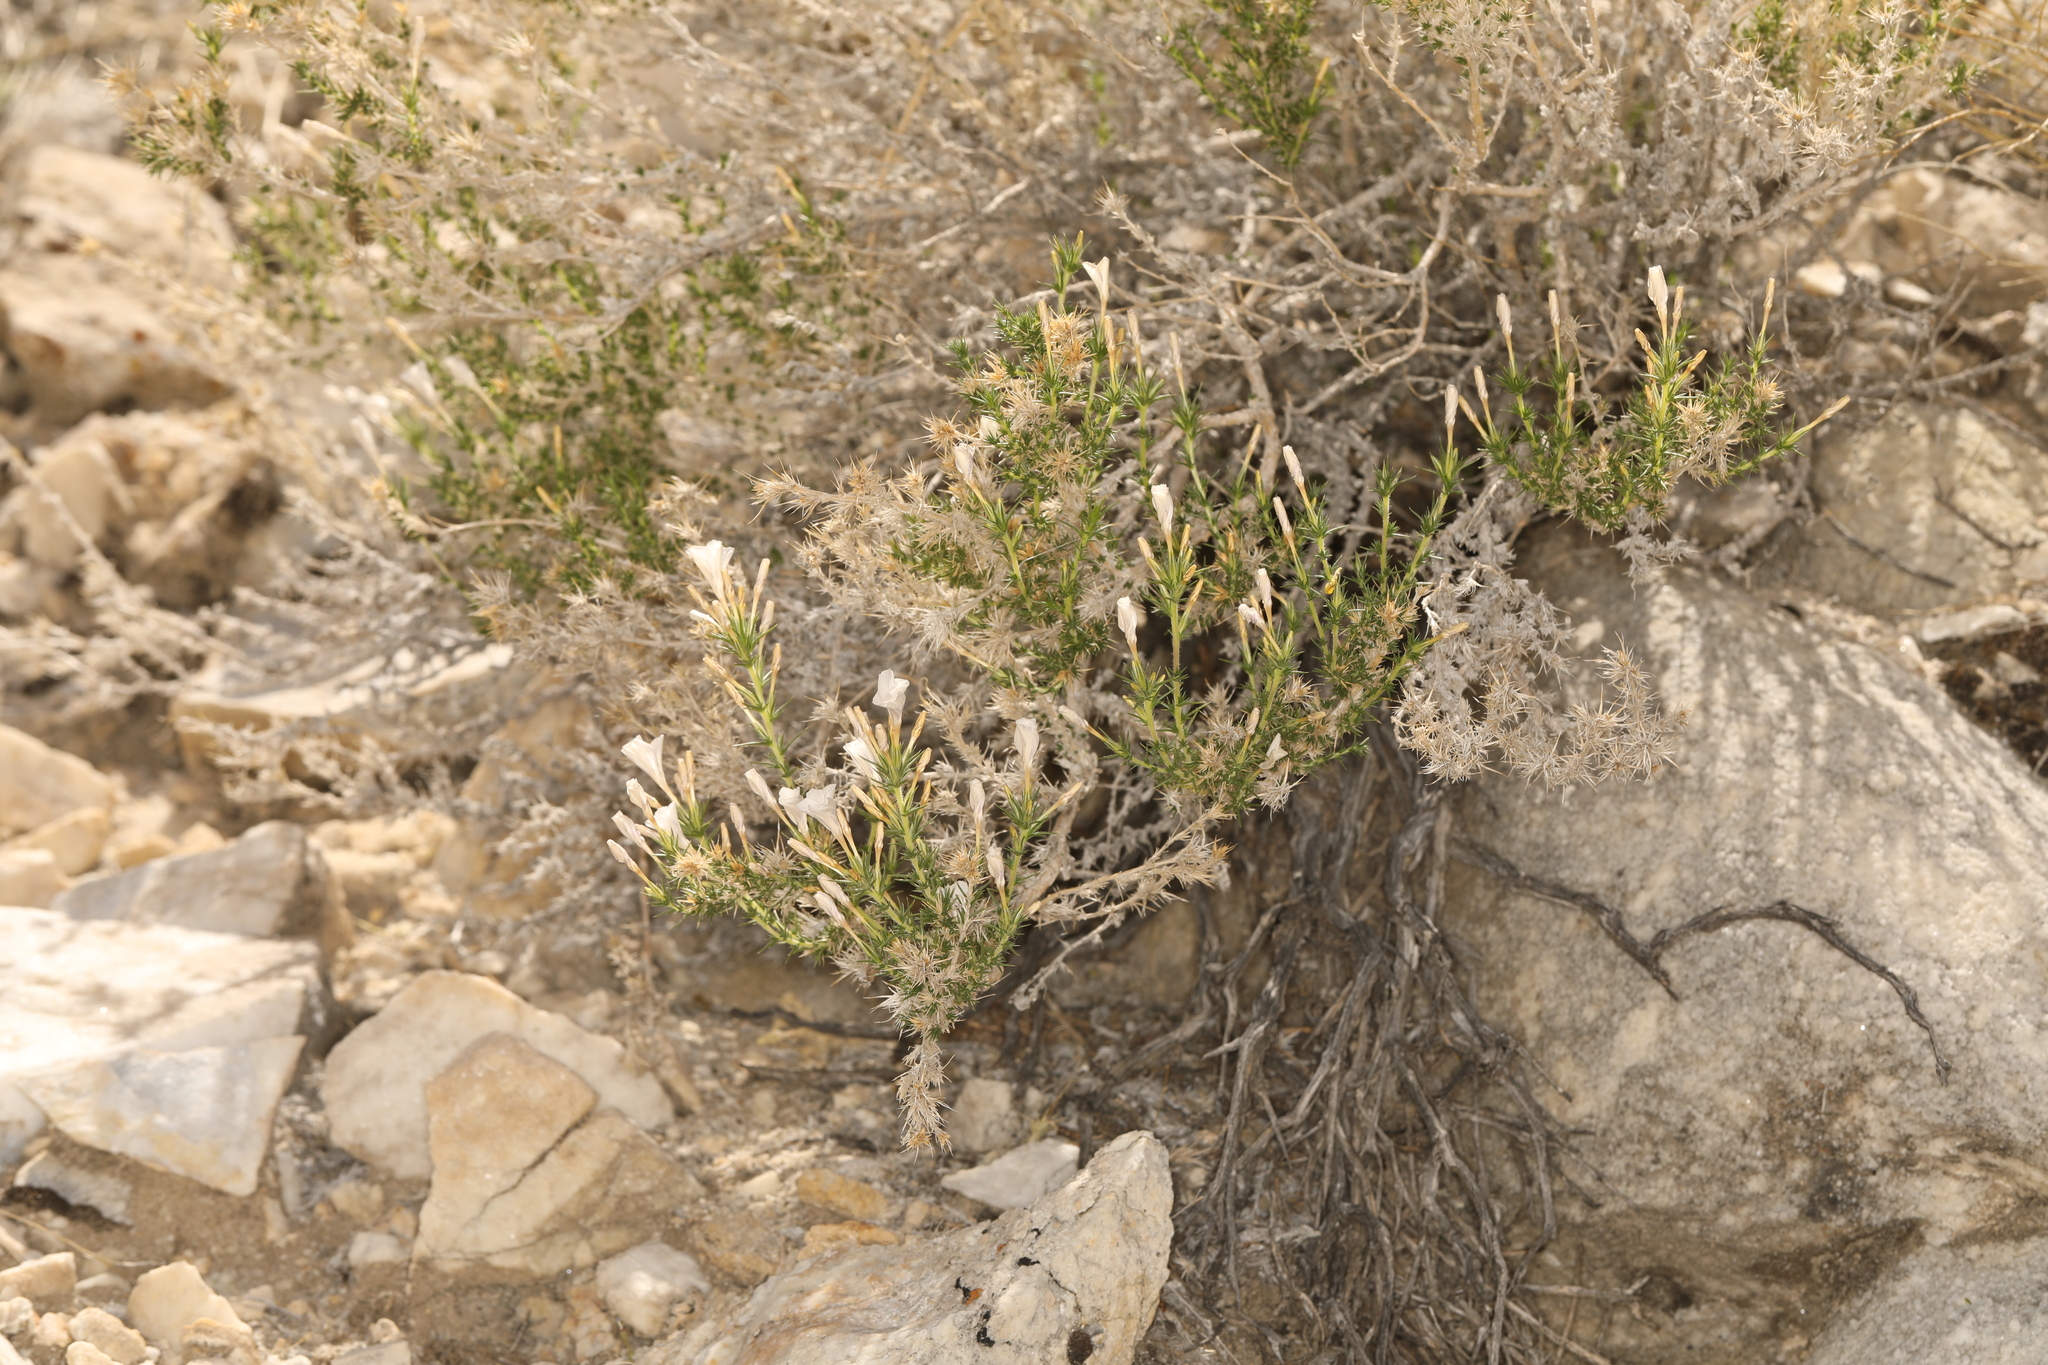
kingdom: Plantae
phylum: Tracheophyta
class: Magnoliopsida
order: Ericales
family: Polemoniaceae
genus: Linanthus
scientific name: Linanthus pungens
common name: Granite prickly phlox
